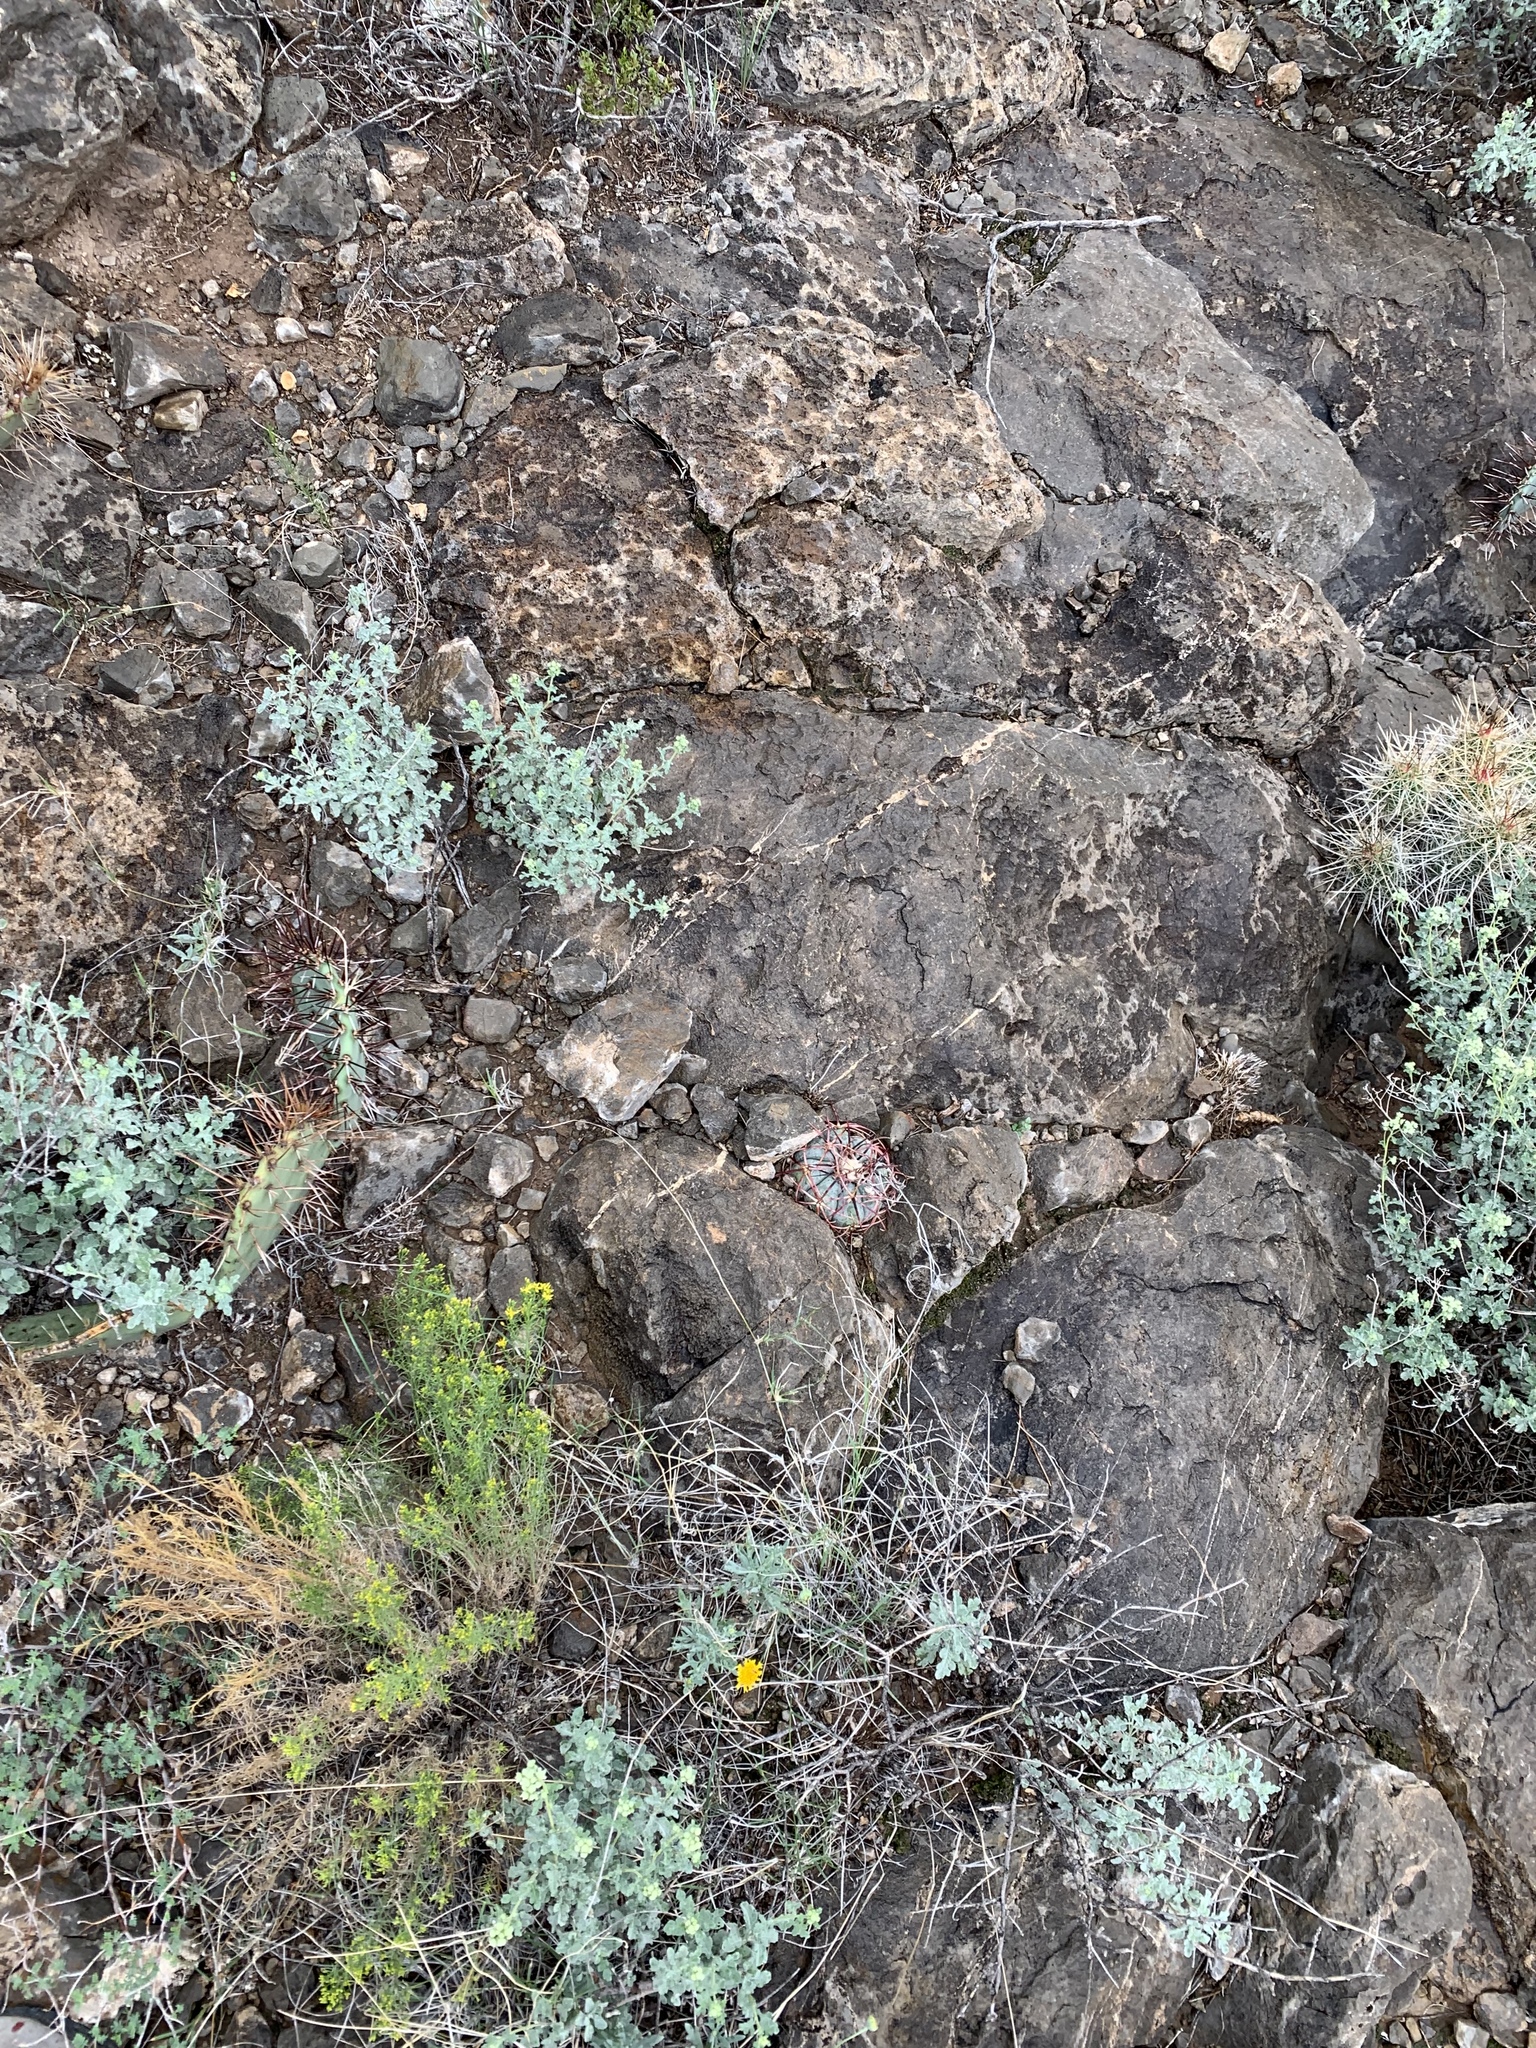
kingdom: Plantae
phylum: Tracheophyta
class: Magnoliopsida
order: Caryophyllales
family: Cactaceae
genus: Echinocactus
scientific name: Echinocactus horizonthalonius
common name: Devilshead
